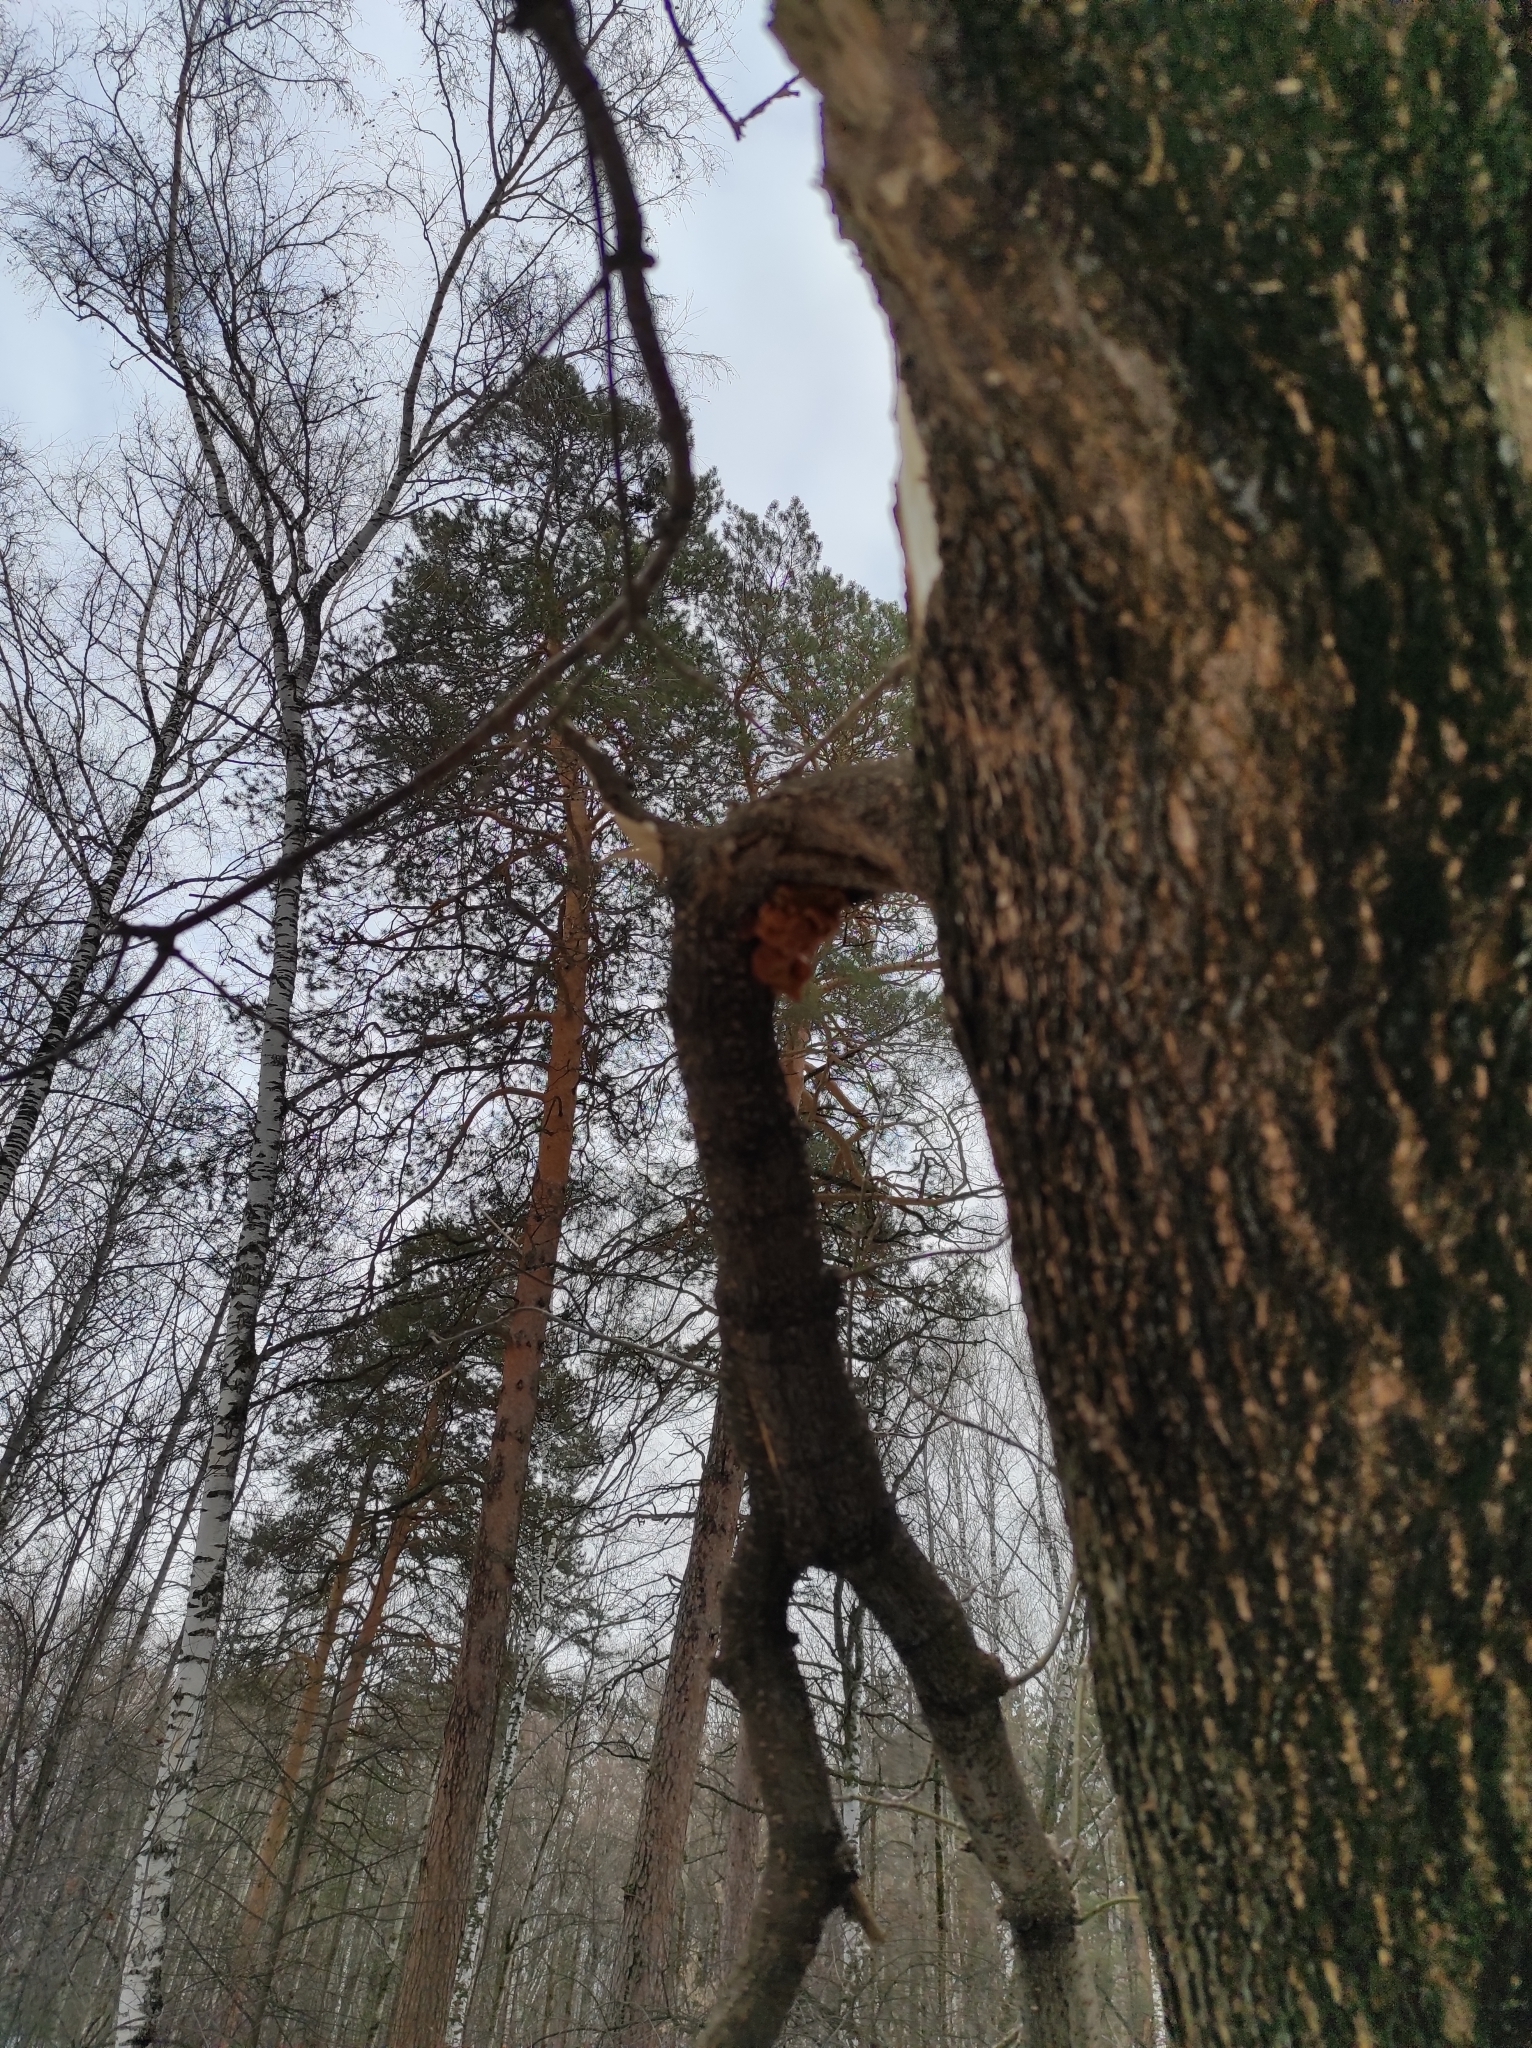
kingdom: Plantae
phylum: Tracheophyta
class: Pinopsida
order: Pinales
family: Pinaceae
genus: Pinus
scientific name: Pinus sylvestris
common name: Scots pine
